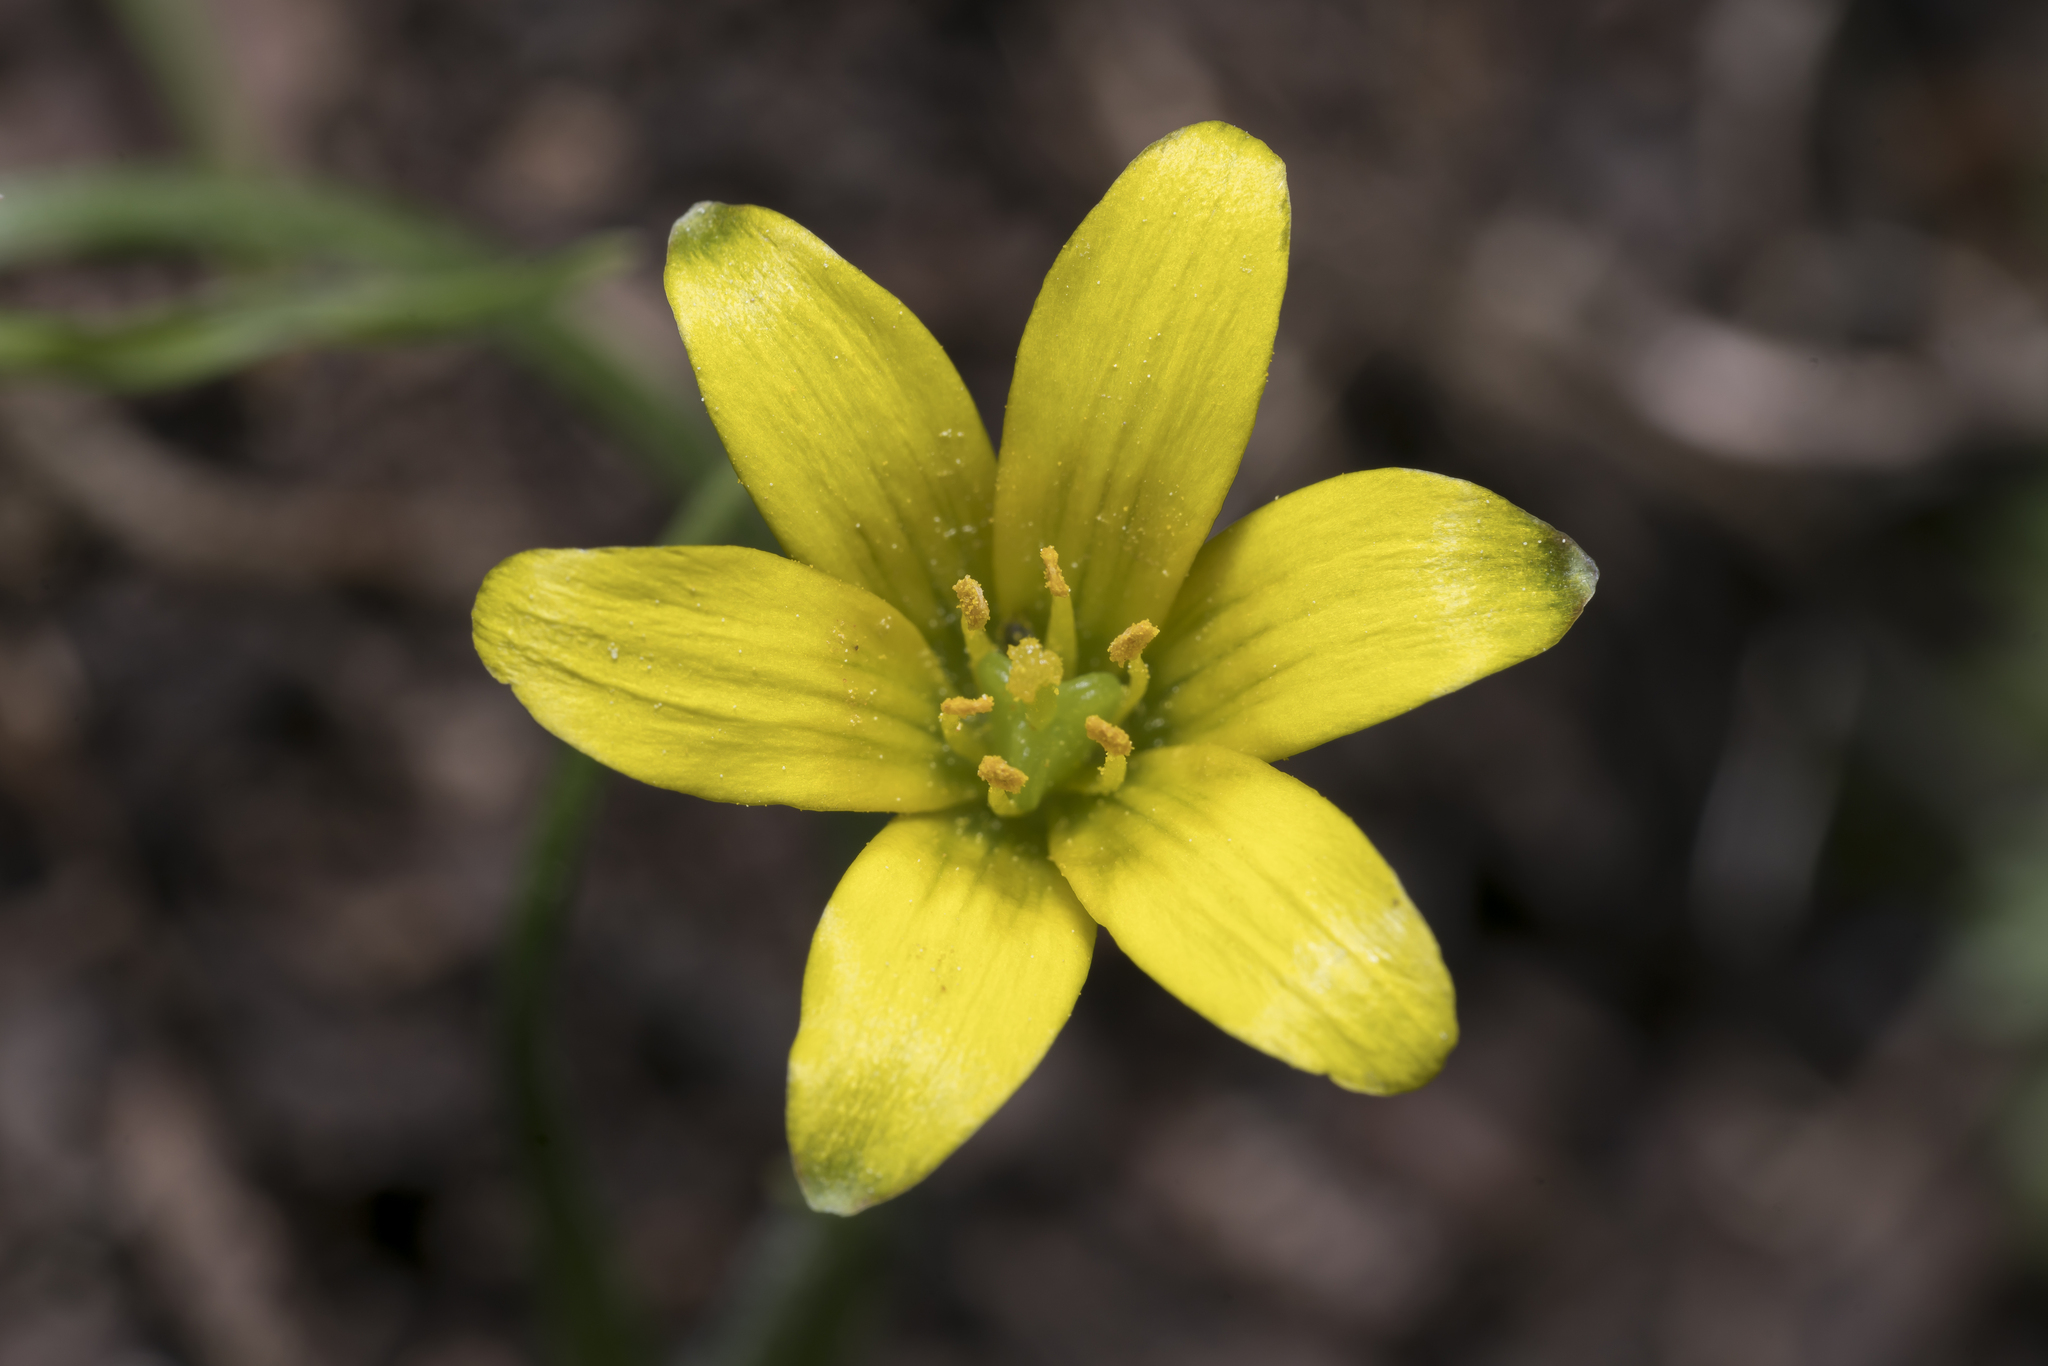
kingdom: Plantae
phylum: Tracheophyta
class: Liliopsida
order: Liliales
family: Liliaceae
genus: Gagea
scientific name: Gagea bohemica
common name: Early star-of-bethlehem
